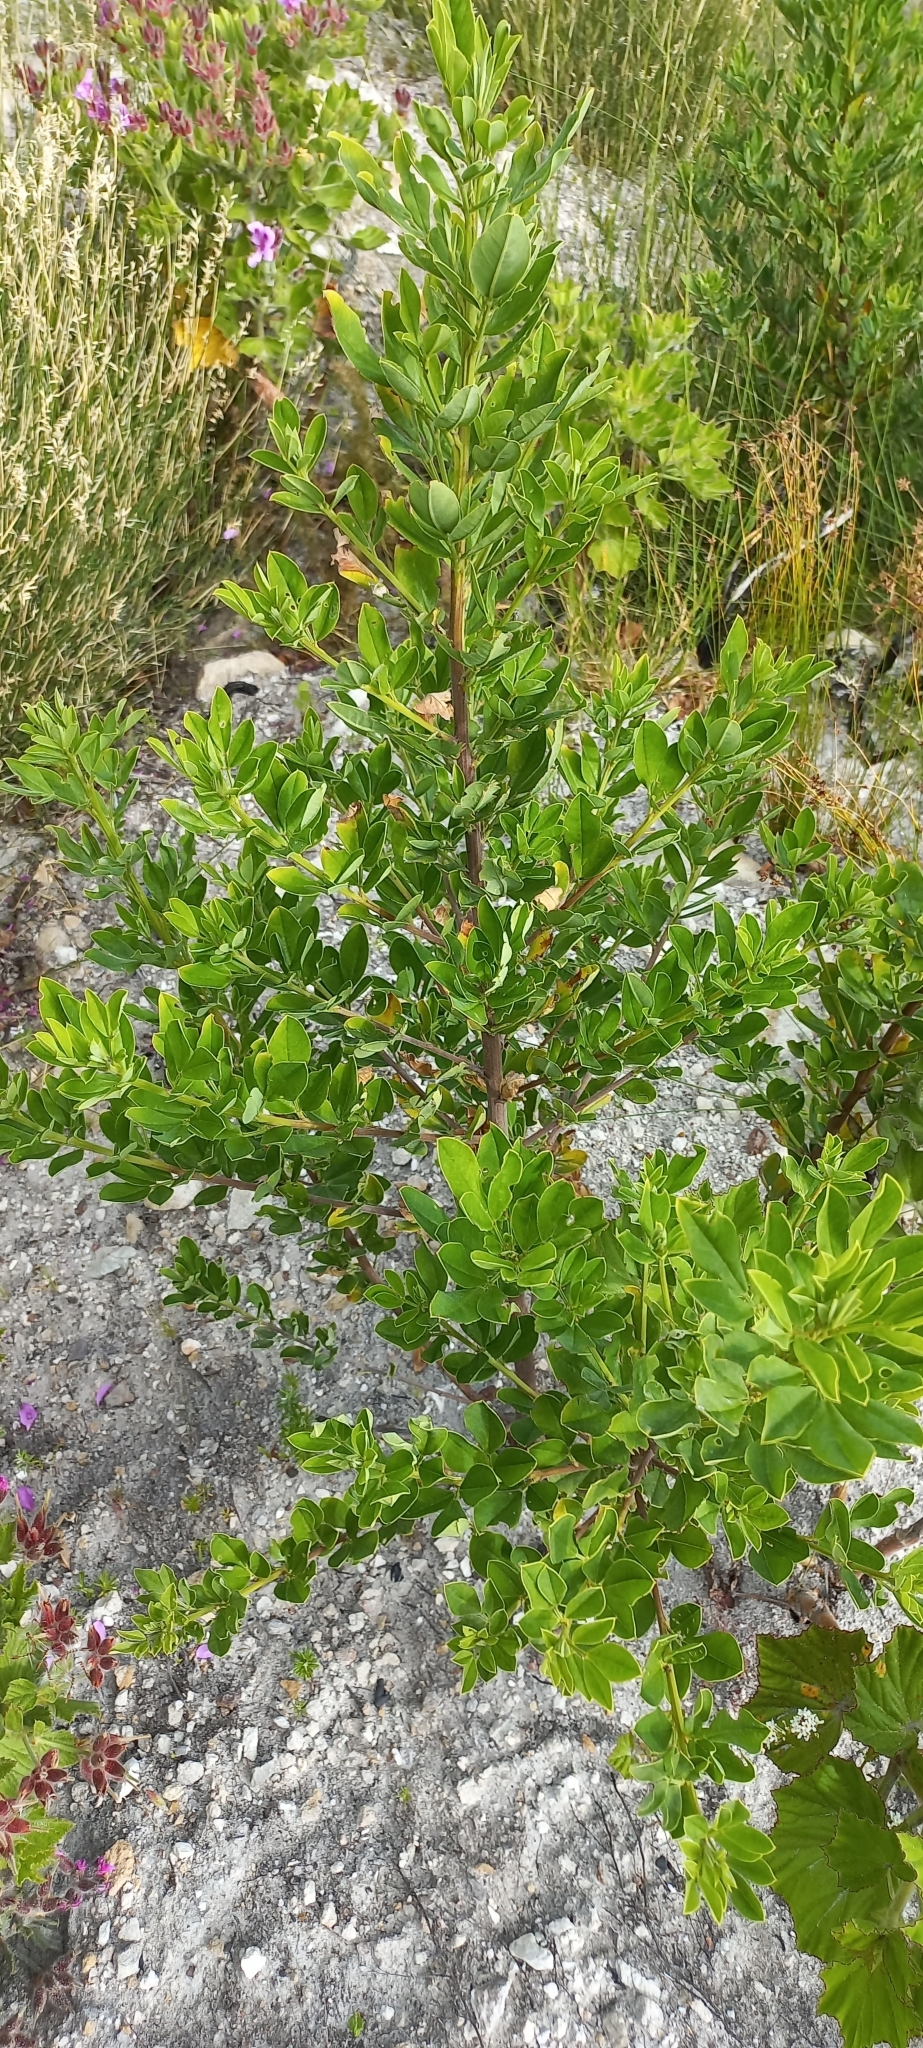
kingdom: Plantae
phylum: Tracheophyta
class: Magnoliopsida
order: Fabales
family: Fabaceae
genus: Indigofera
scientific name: Indigofera cytisoides
